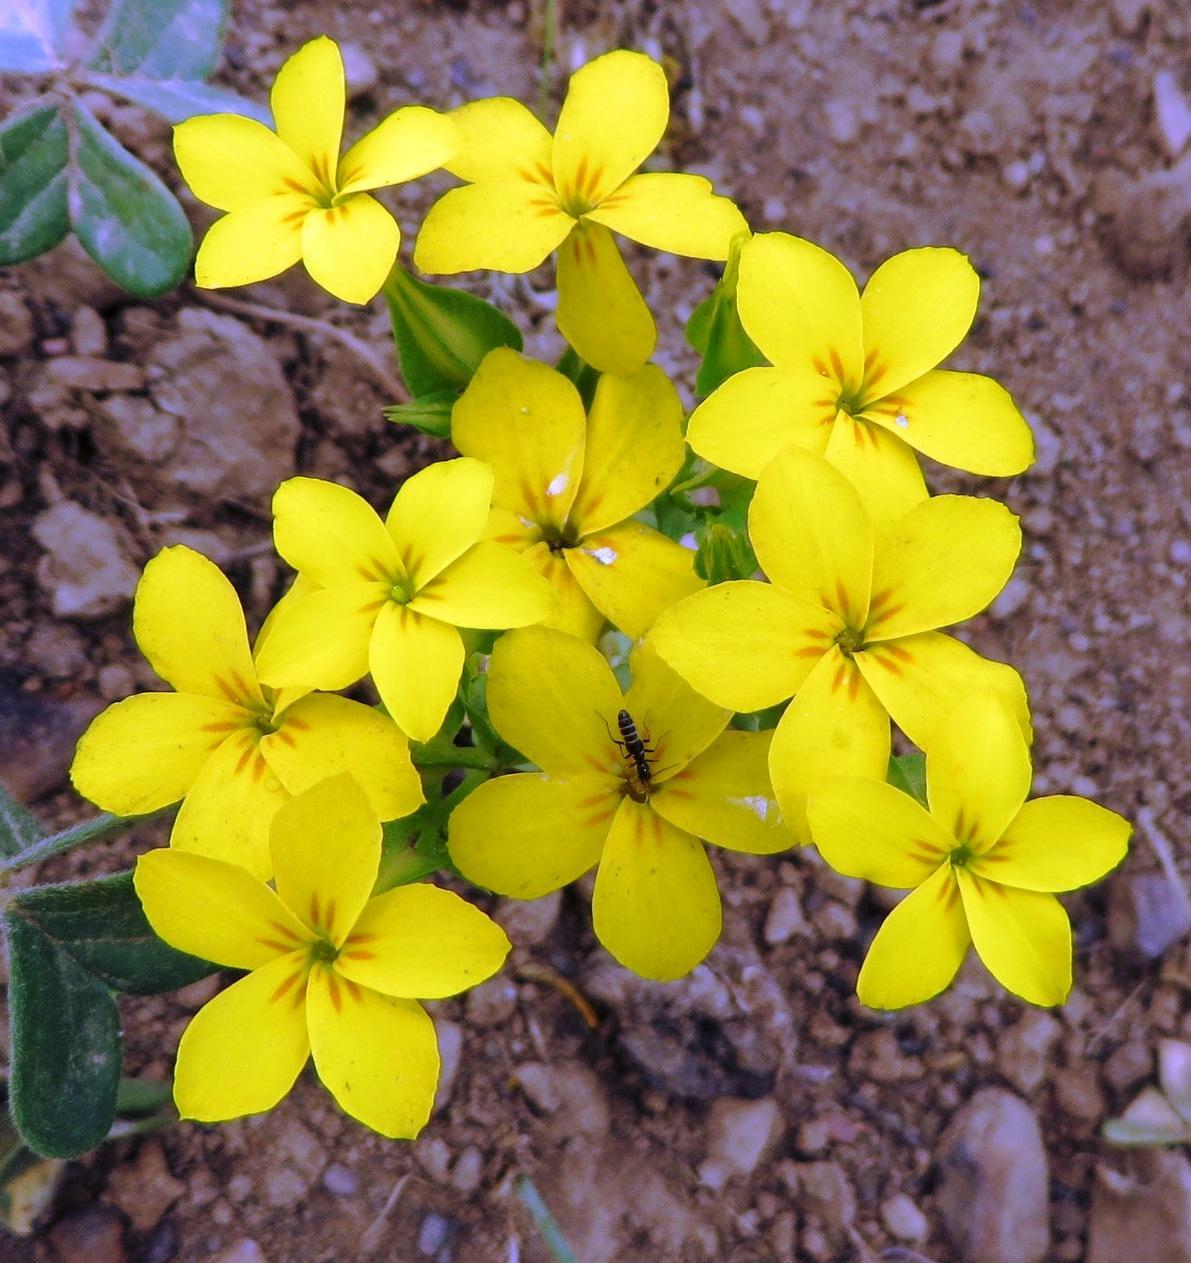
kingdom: Plantae
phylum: Tracheophyta
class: Magnoliopsida
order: Gentianales
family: Gentianaceae
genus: Sebaea
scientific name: Sebaea exacoides
